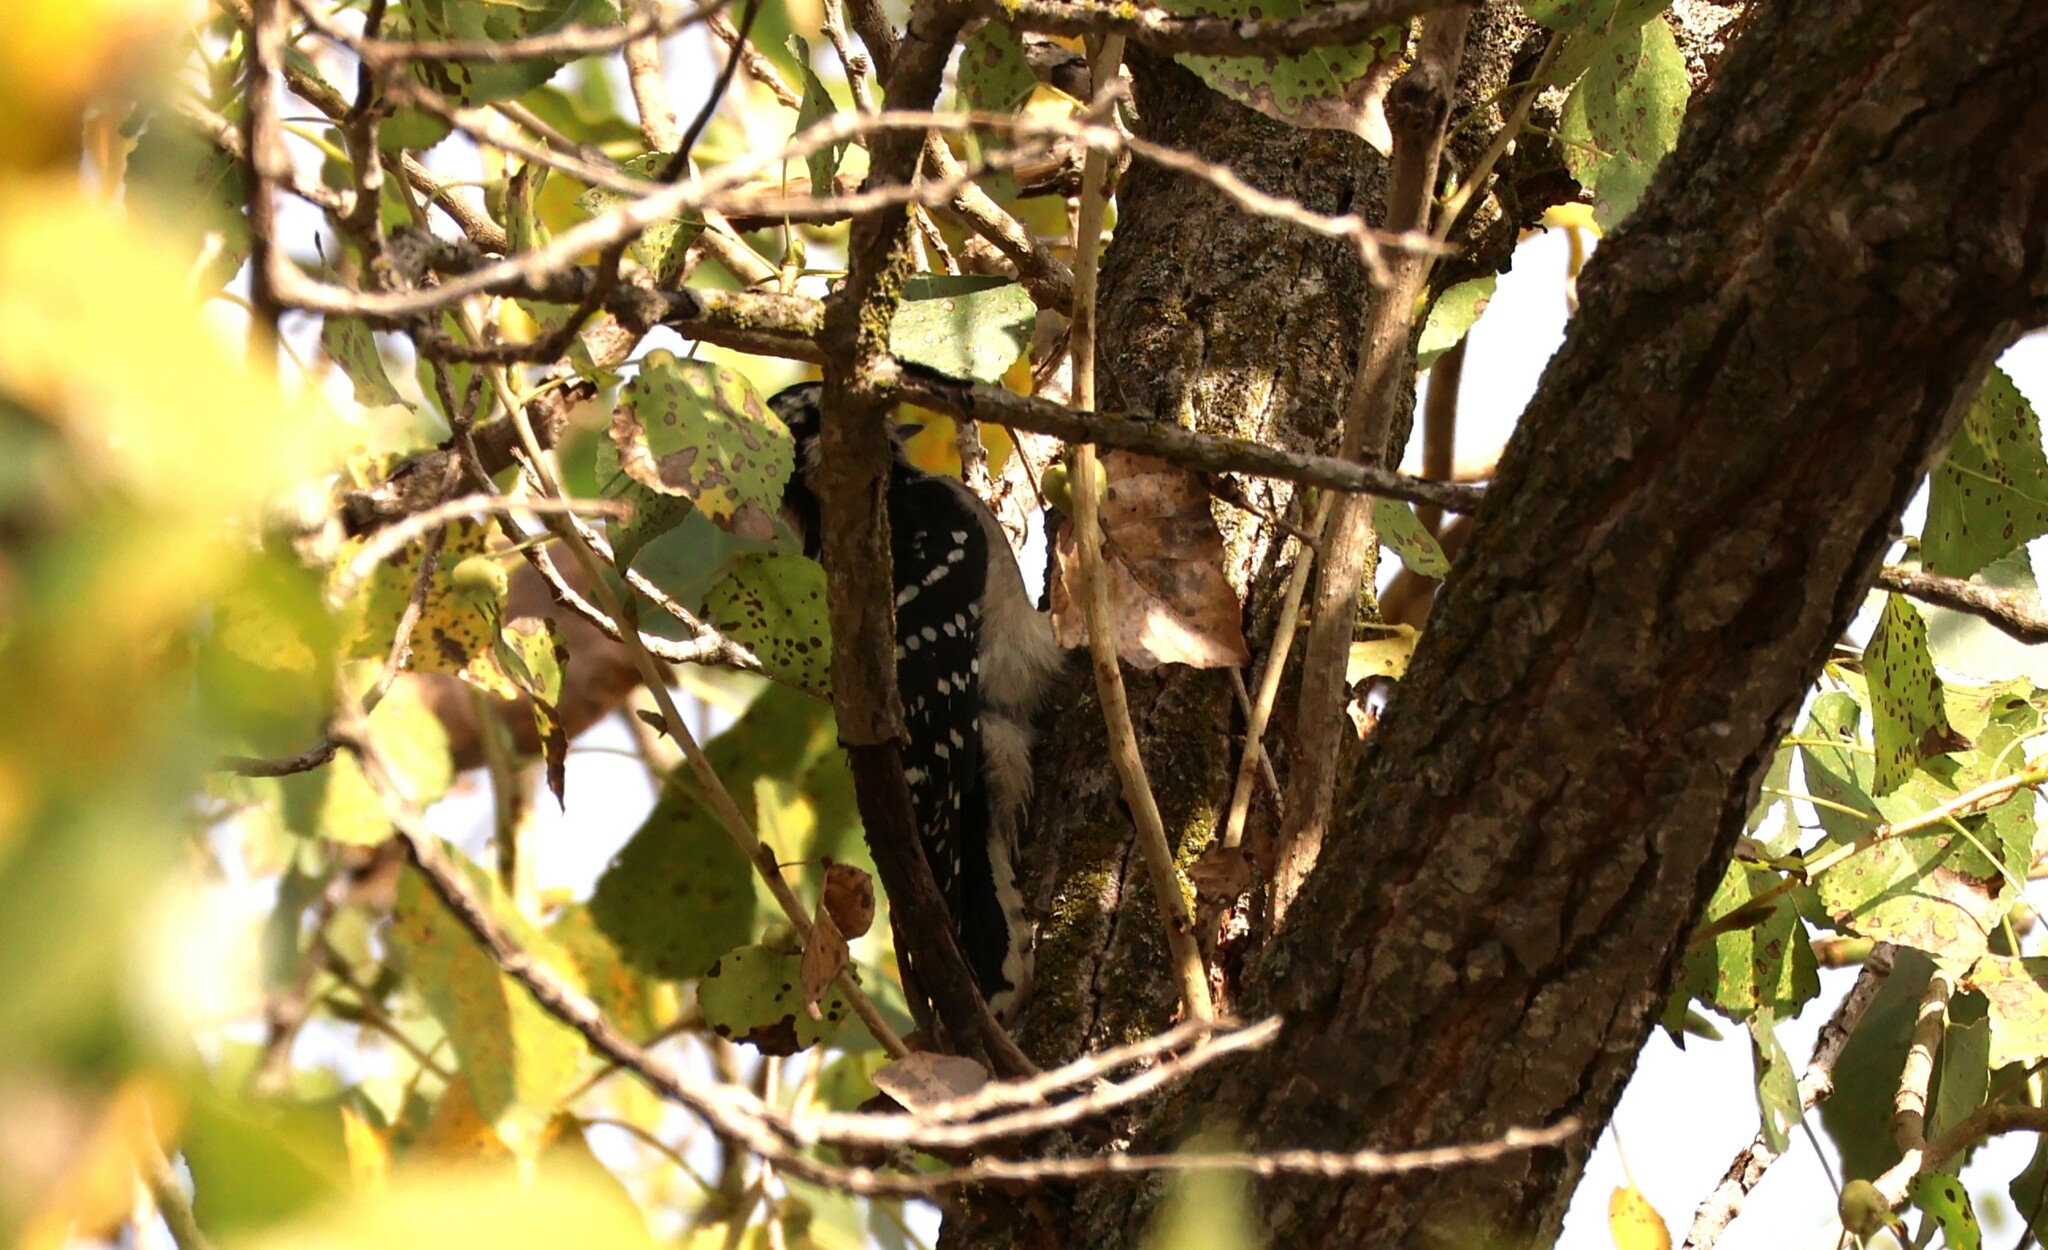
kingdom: Animalia
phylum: Chordata
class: Aves
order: Piciformes
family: Picidae
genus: Dryobates
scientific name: Dryobates pubescens
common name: Downy woodpecker
